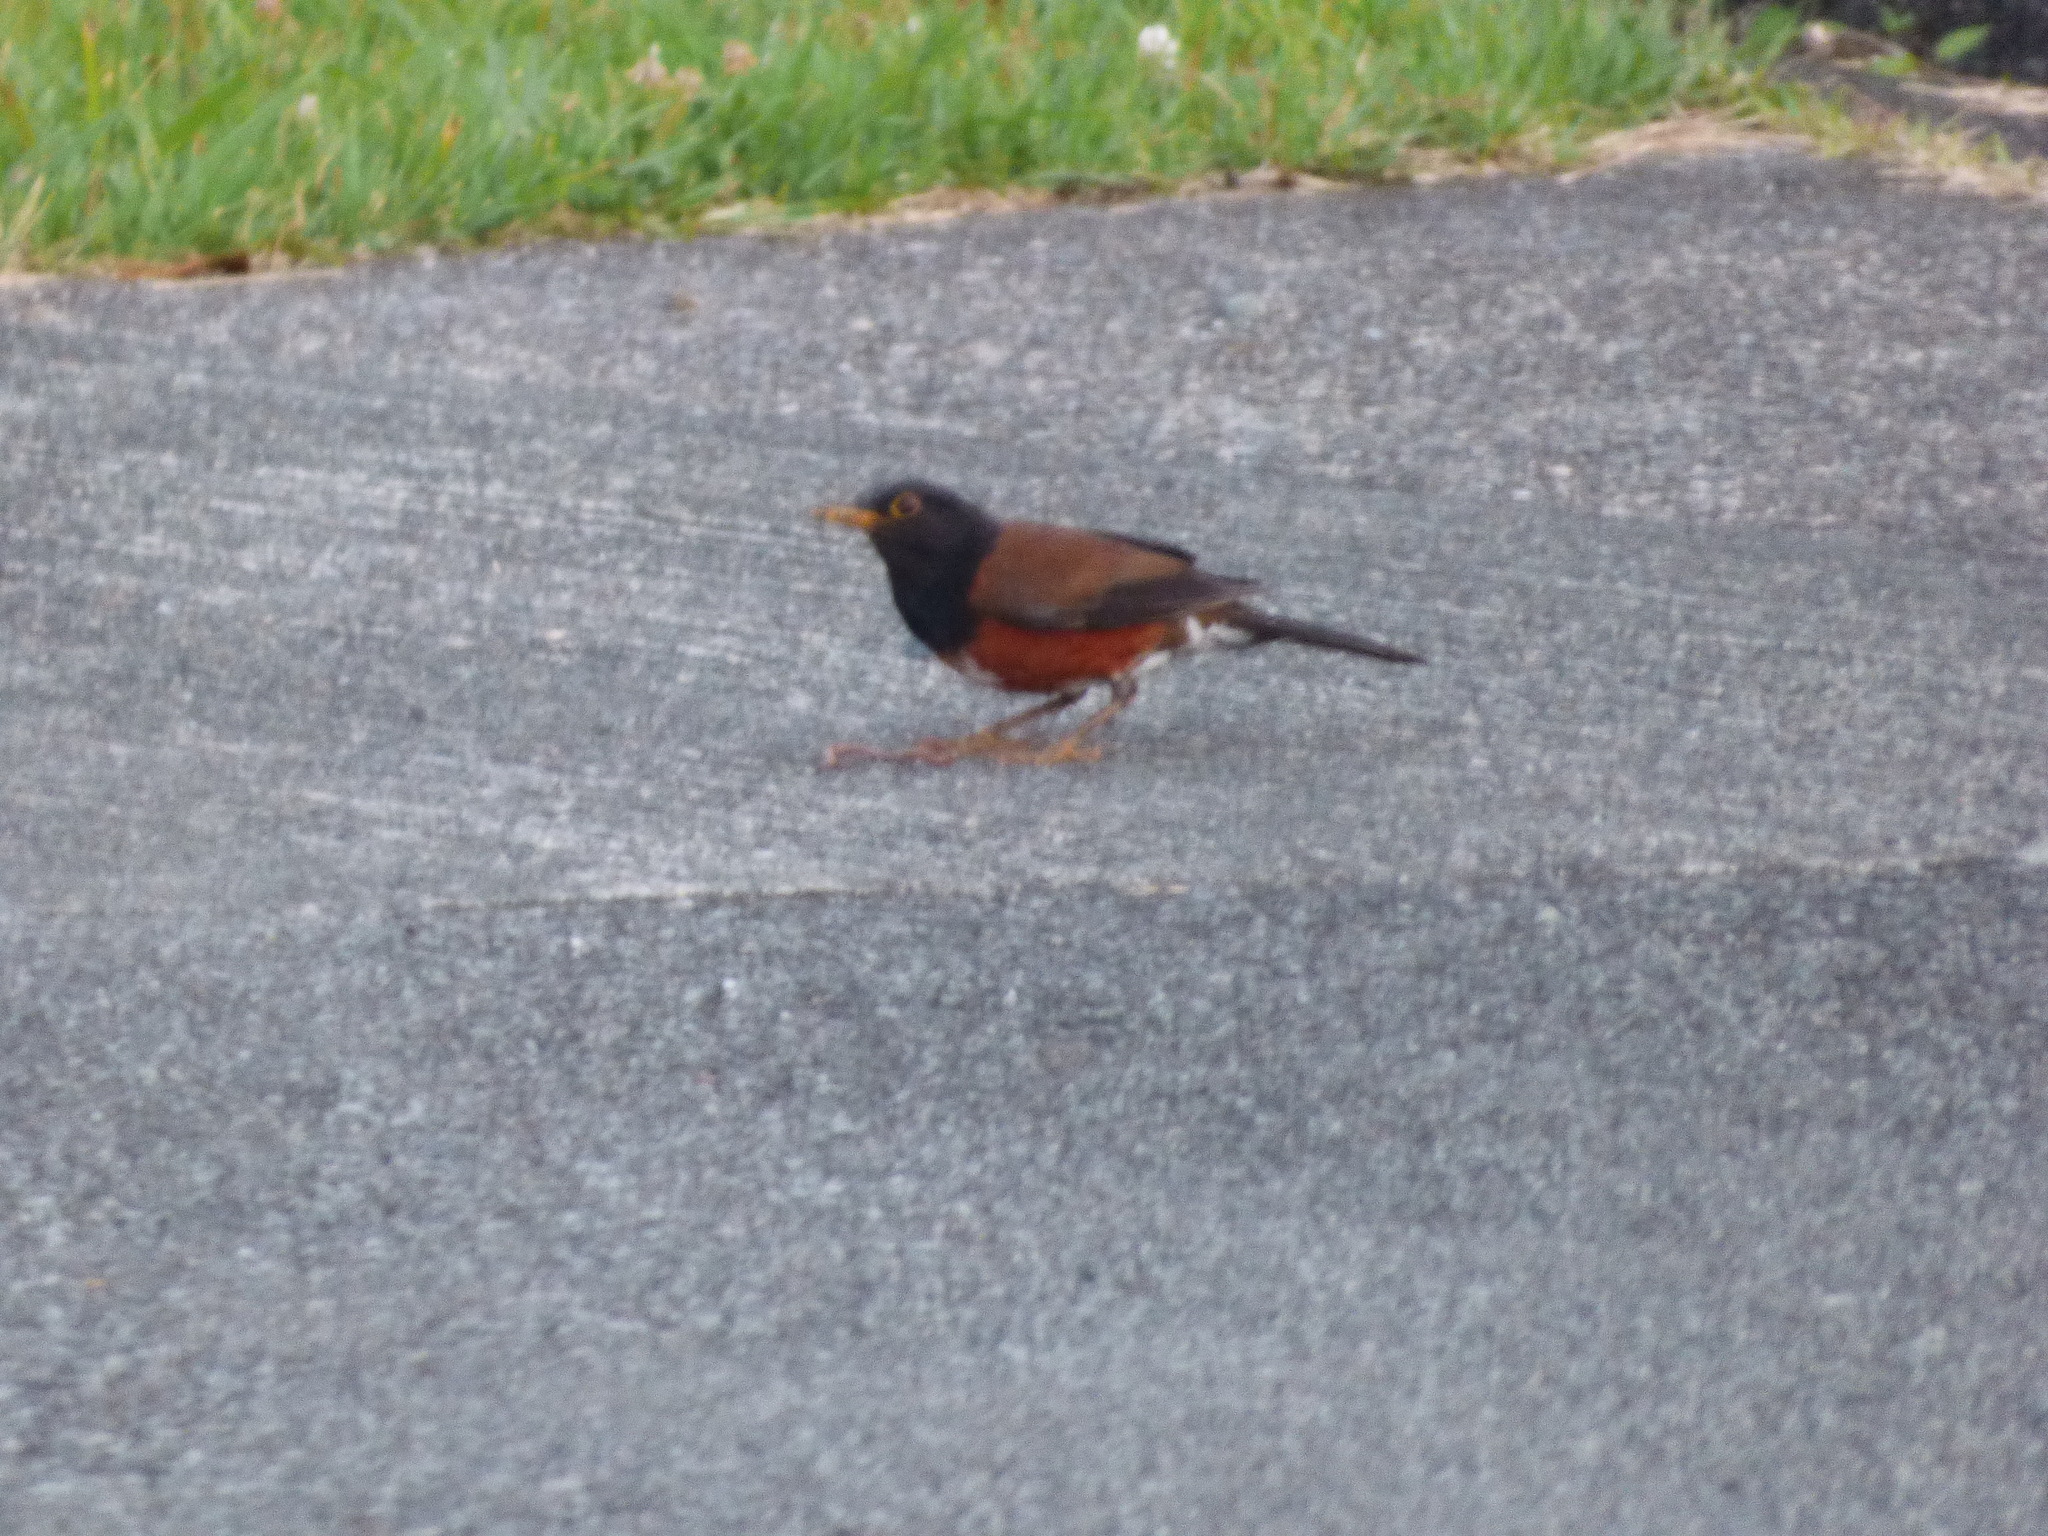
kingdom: Animalia
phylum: Chordata
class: Aves
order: Passeriformes
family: Turdidae
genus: Turdus
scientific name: Turdus celaenops
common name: Izu thrush
